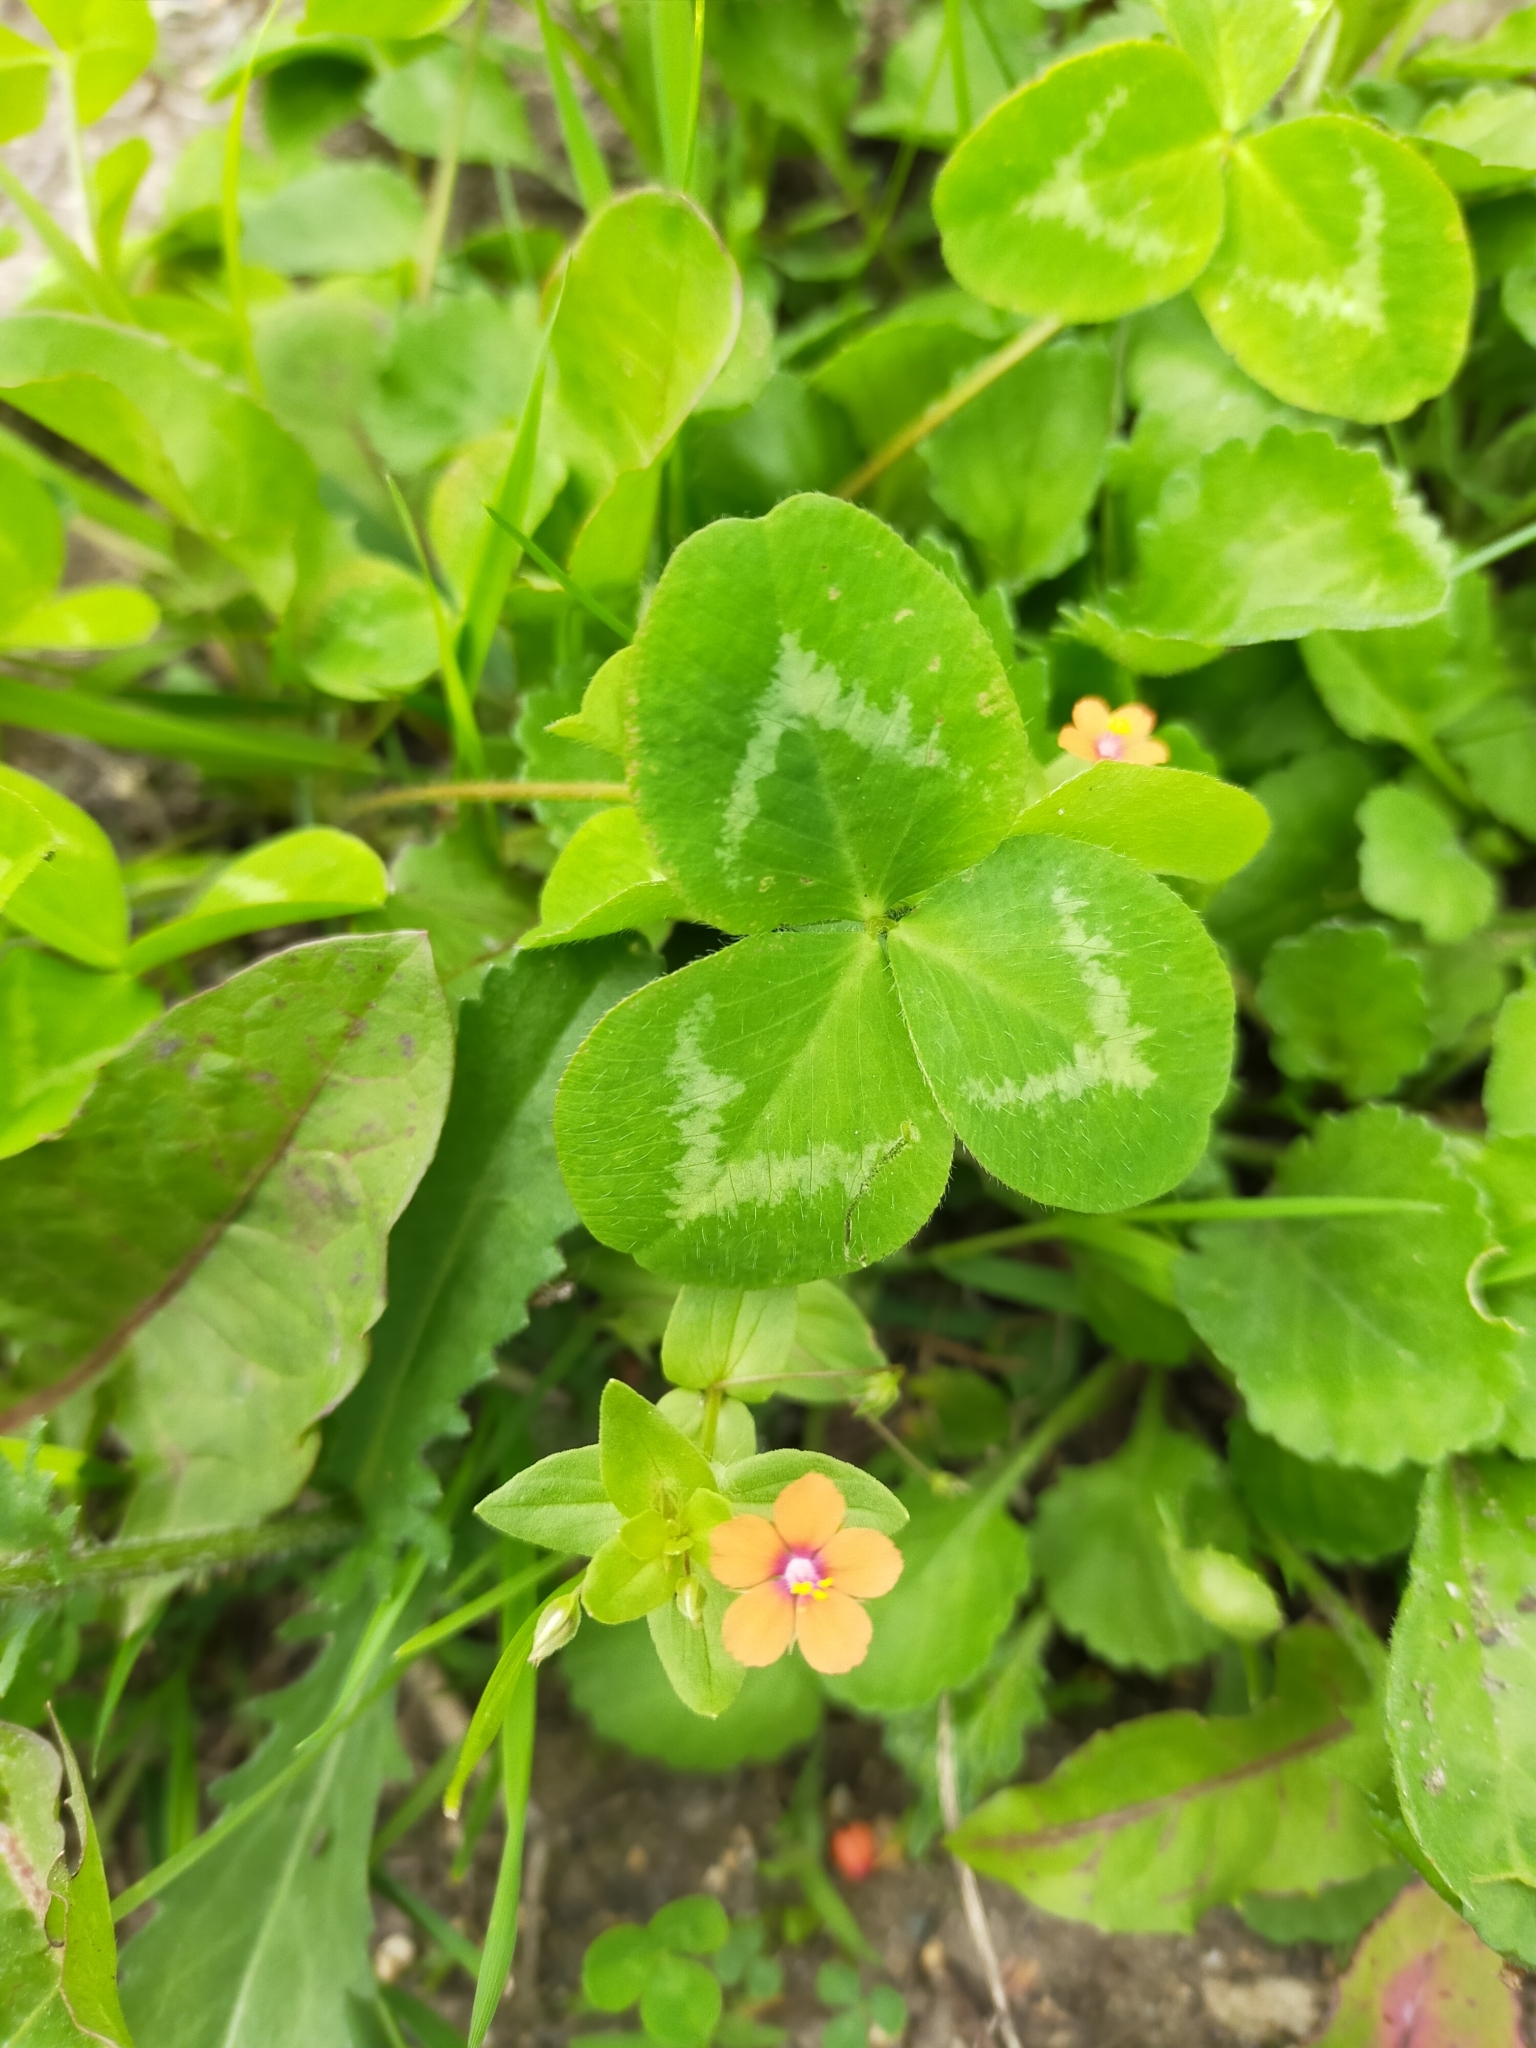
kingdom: Plantae
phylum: Tracheophyta
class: Magnoliopsida
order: Ericales
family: Primulaceae
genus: Lysimachia
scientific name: Lysimachia arvensis
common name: Scarlet pimpernel
